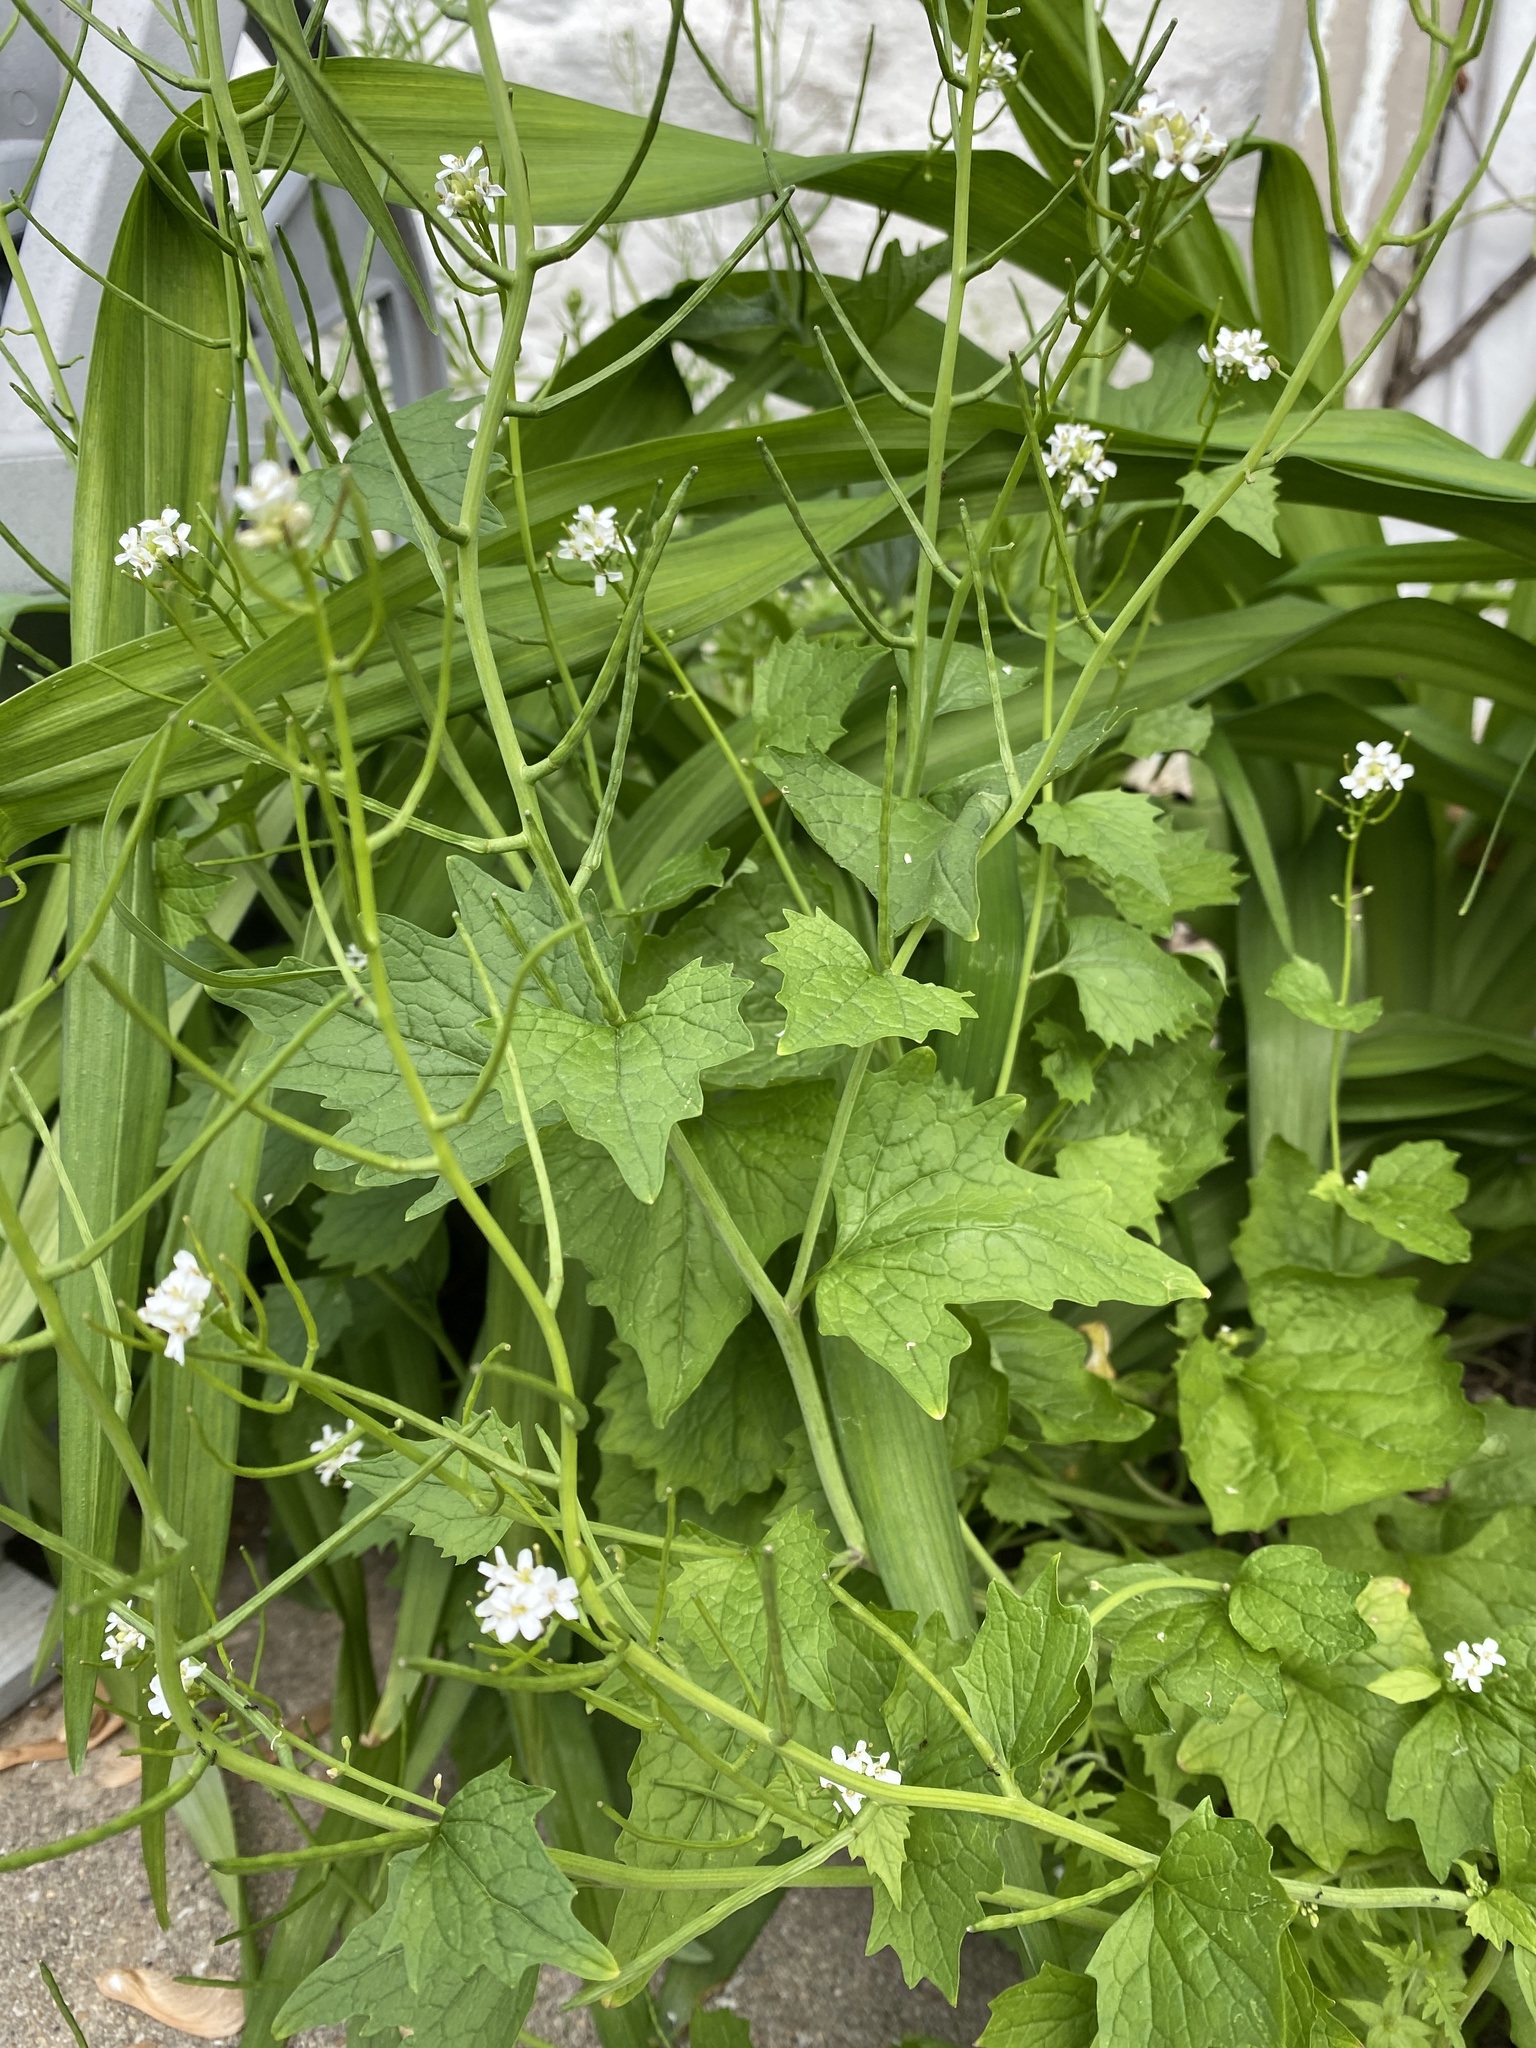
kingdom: Plantae
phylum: Tracheophyta
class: Magnoliopsida
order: Brassicales
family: Brassicaceae
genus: Alliaria
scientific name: Alliaria petiolata
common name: Garlic mustard
